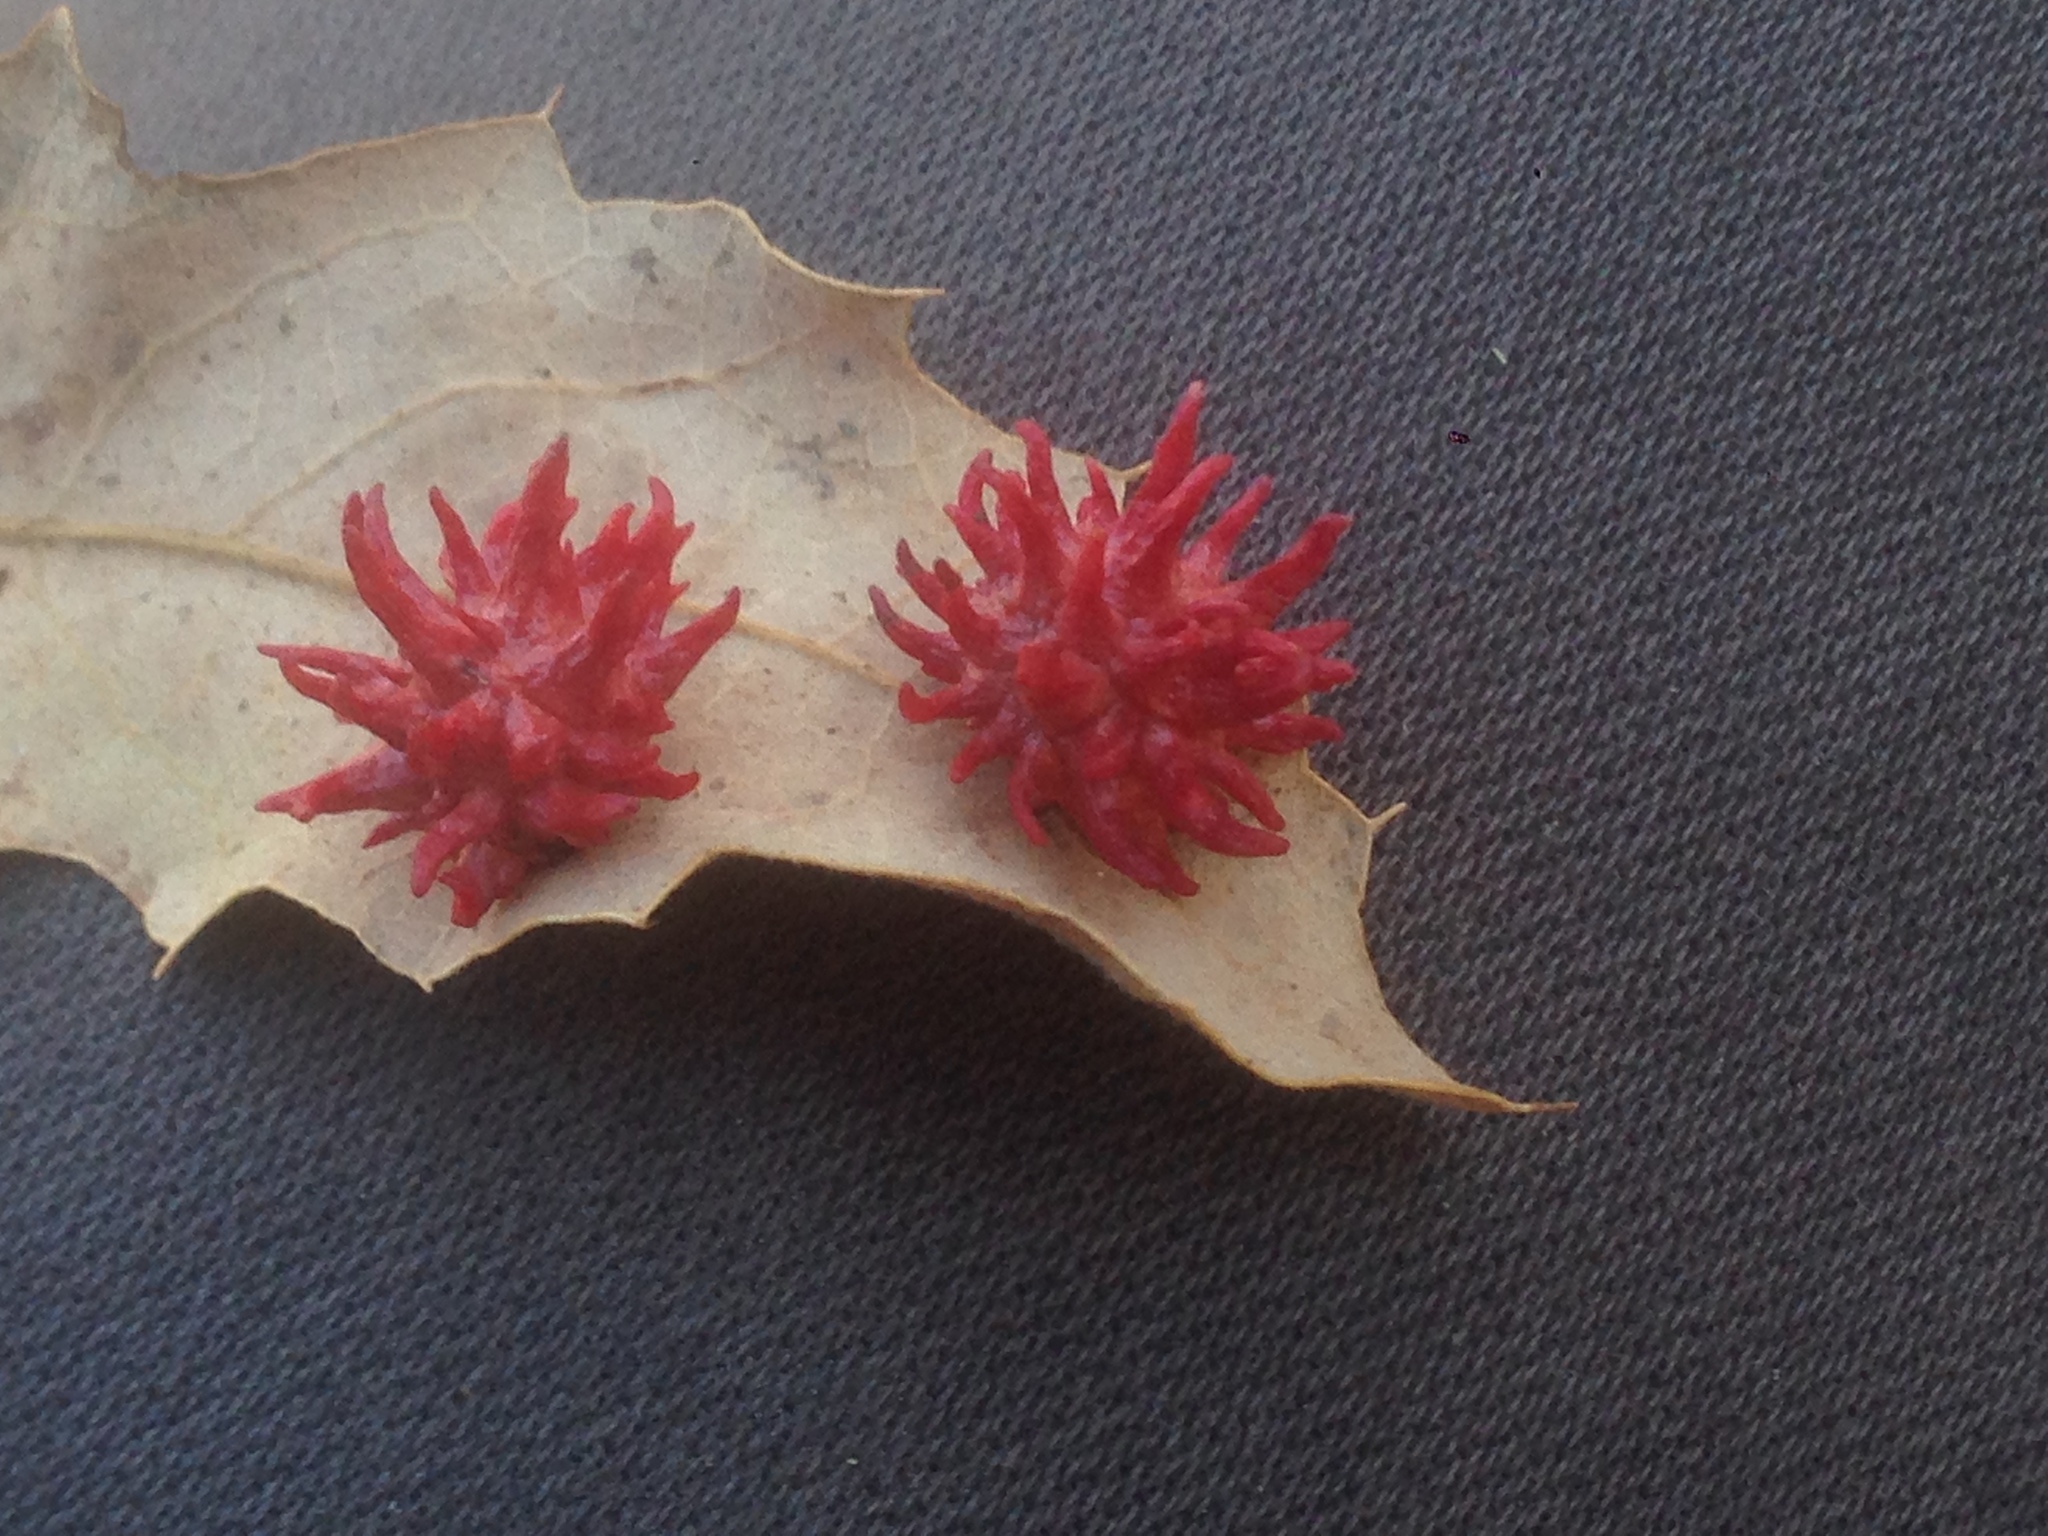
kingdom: Animalia
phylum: Arthropoda
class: Insecta
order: Hymenoptera
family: Cynipidae
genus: Cynips
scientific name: Cynips
